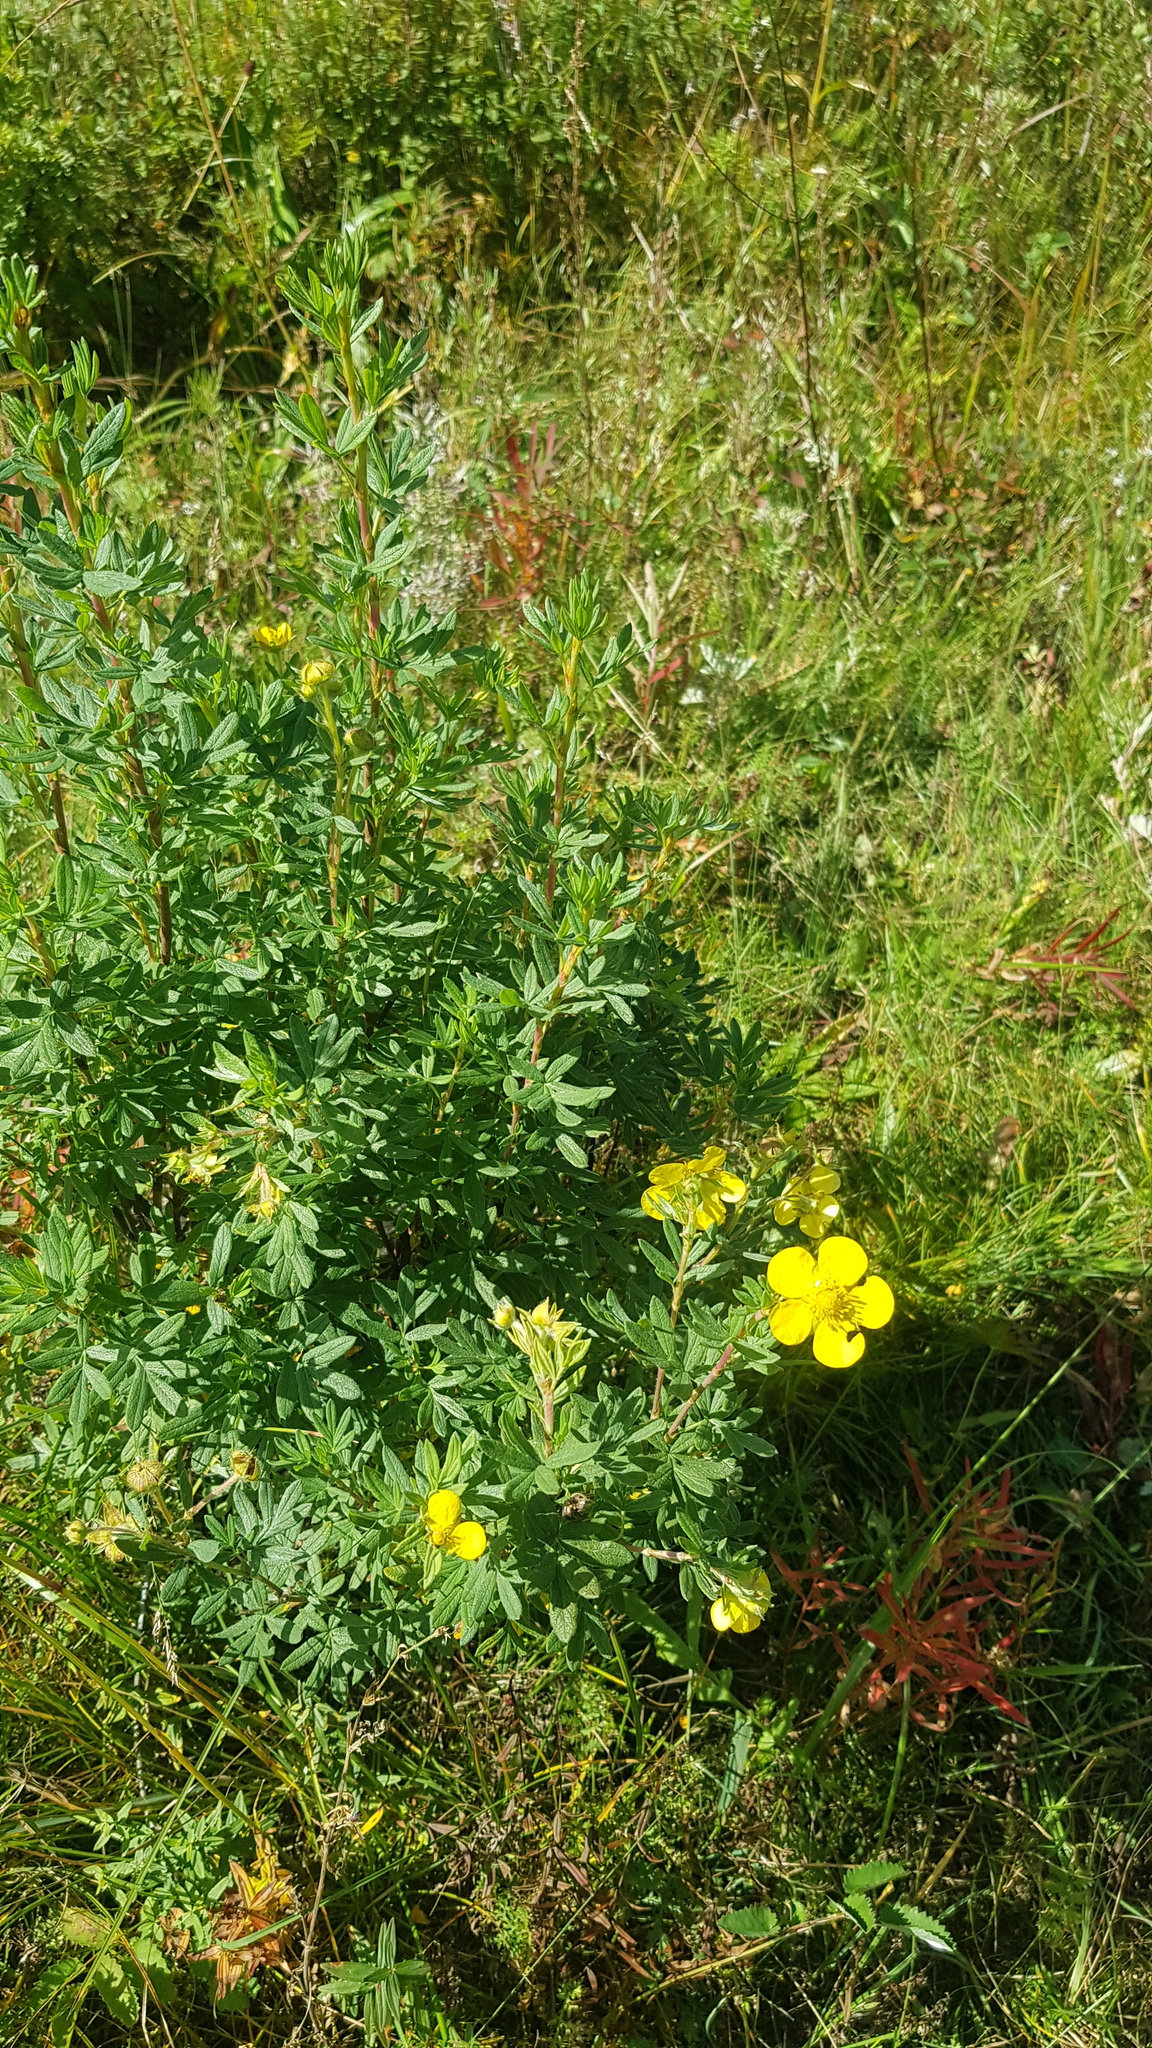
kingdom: Plantae
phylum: Tracheophyta
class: Magnoliopsida
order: Rosales
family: Rosaceae
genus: Dasiphora
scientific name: Dasiphora fruticosa
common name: Shrubby cinquefoil
